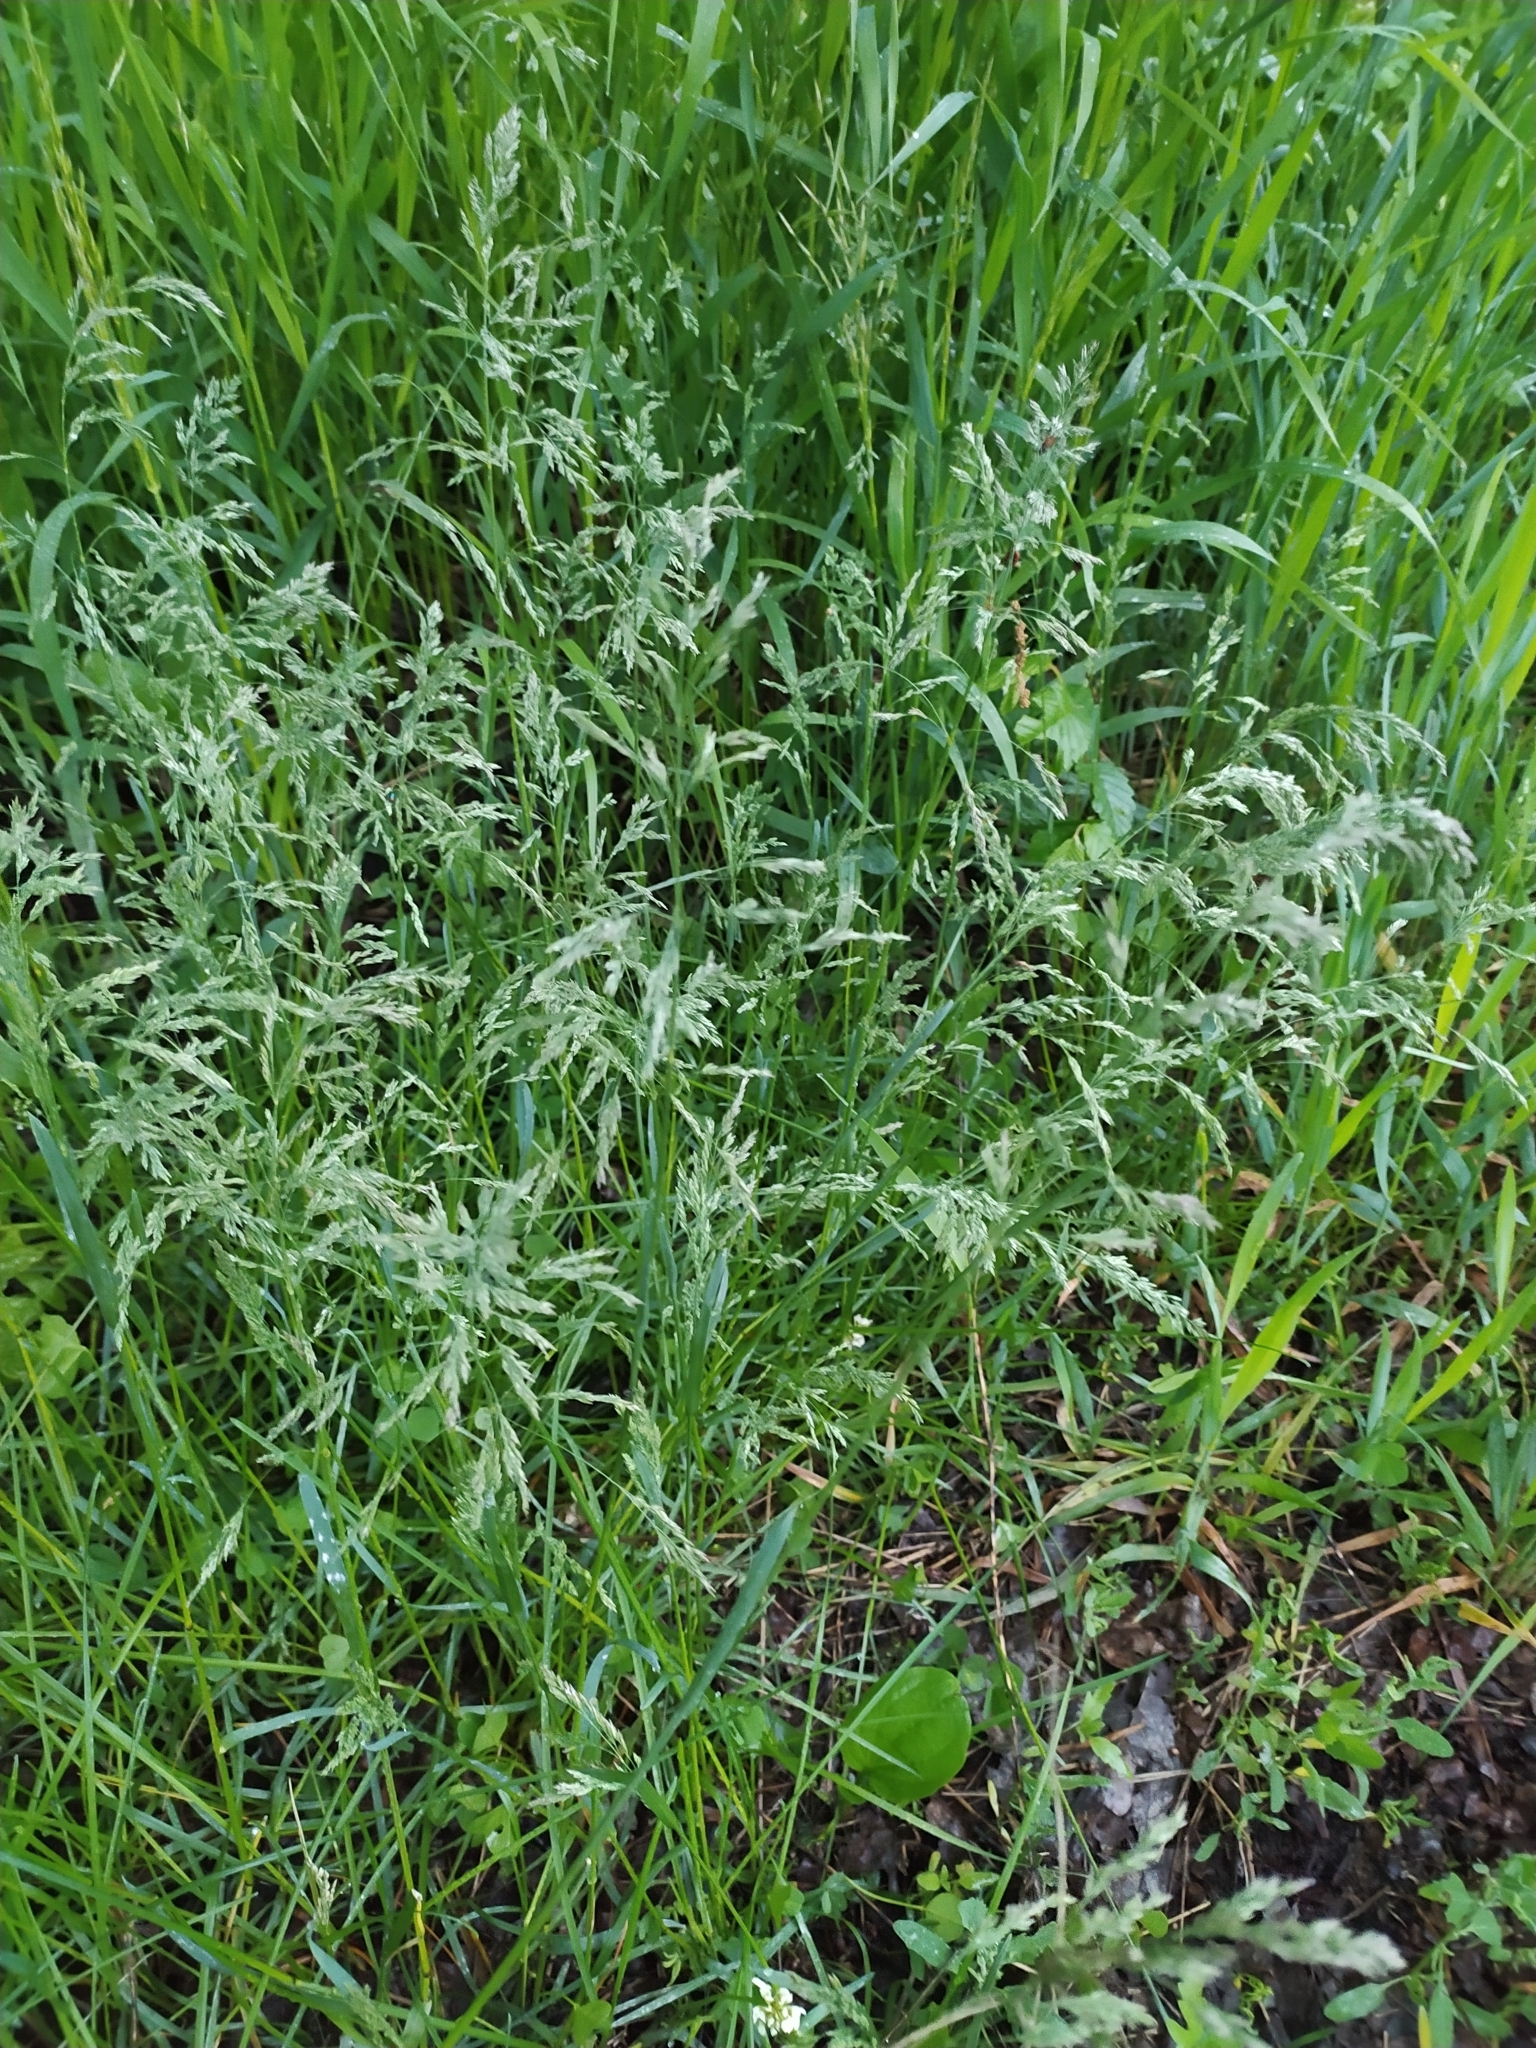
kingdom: Plantae
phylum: Tracheophyta
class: Liliopsida
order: Poales
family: Poaceae
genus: Poa
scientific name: Poa pratensis
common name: Kentucky bluegrass
